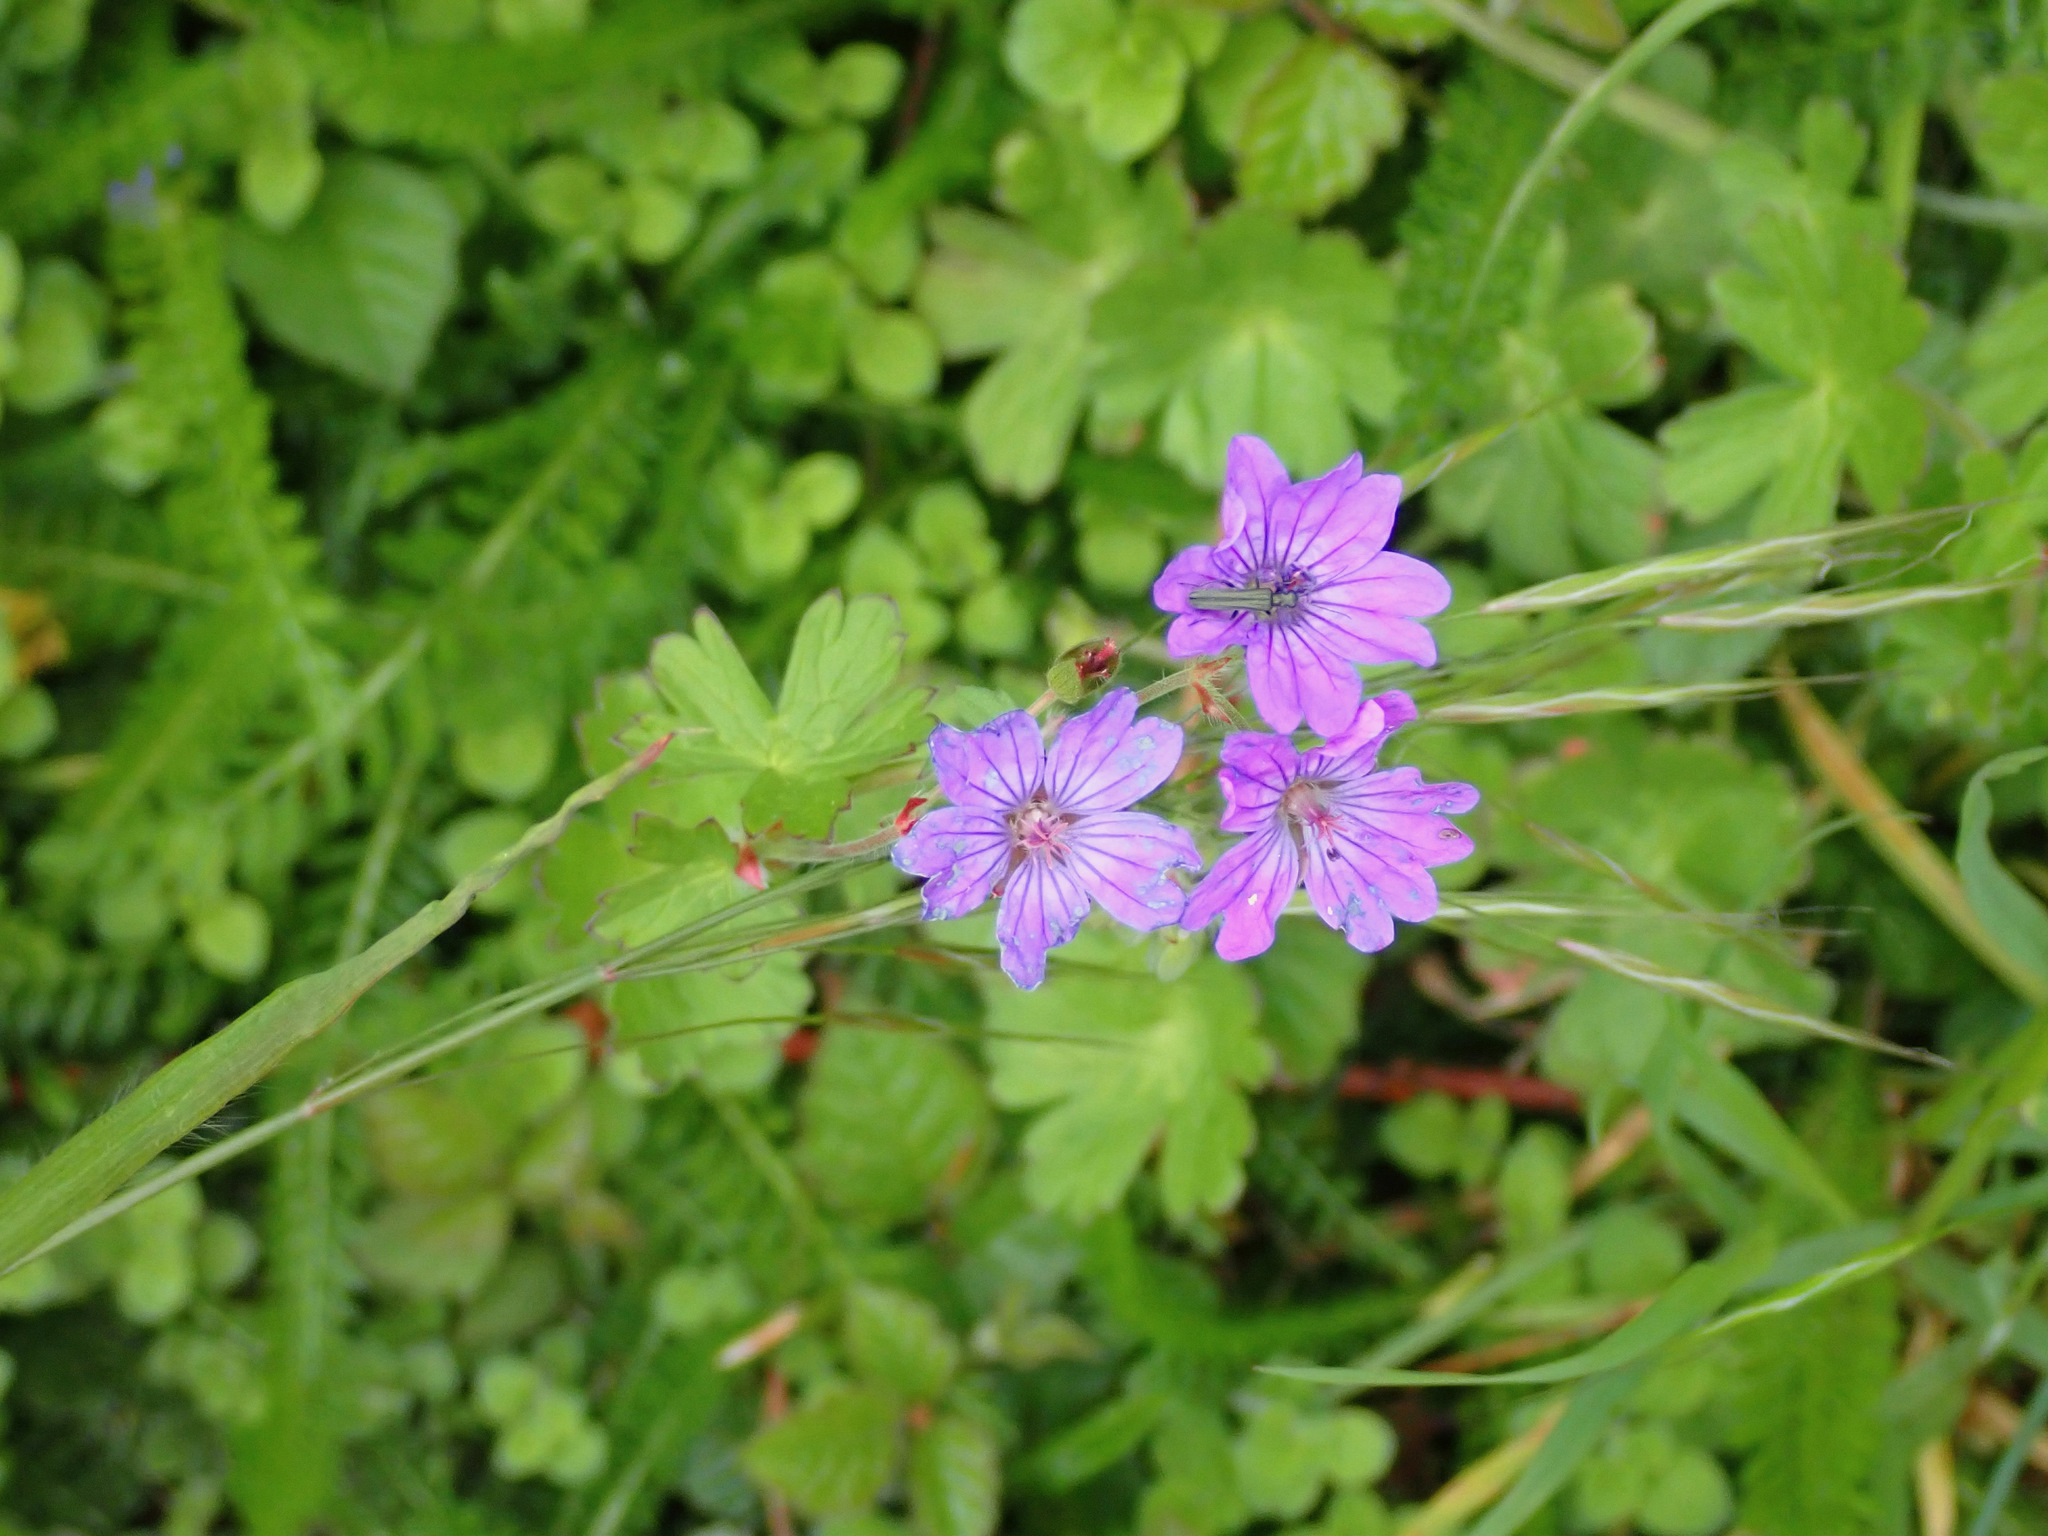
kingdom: Plantae
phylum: Tracheophyta
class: Magnoliopsida
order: Geraniales
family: Geraniaceae
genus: Geranium
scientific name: Geranium pyrenaicum
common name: Hedgerow crane's-bill
